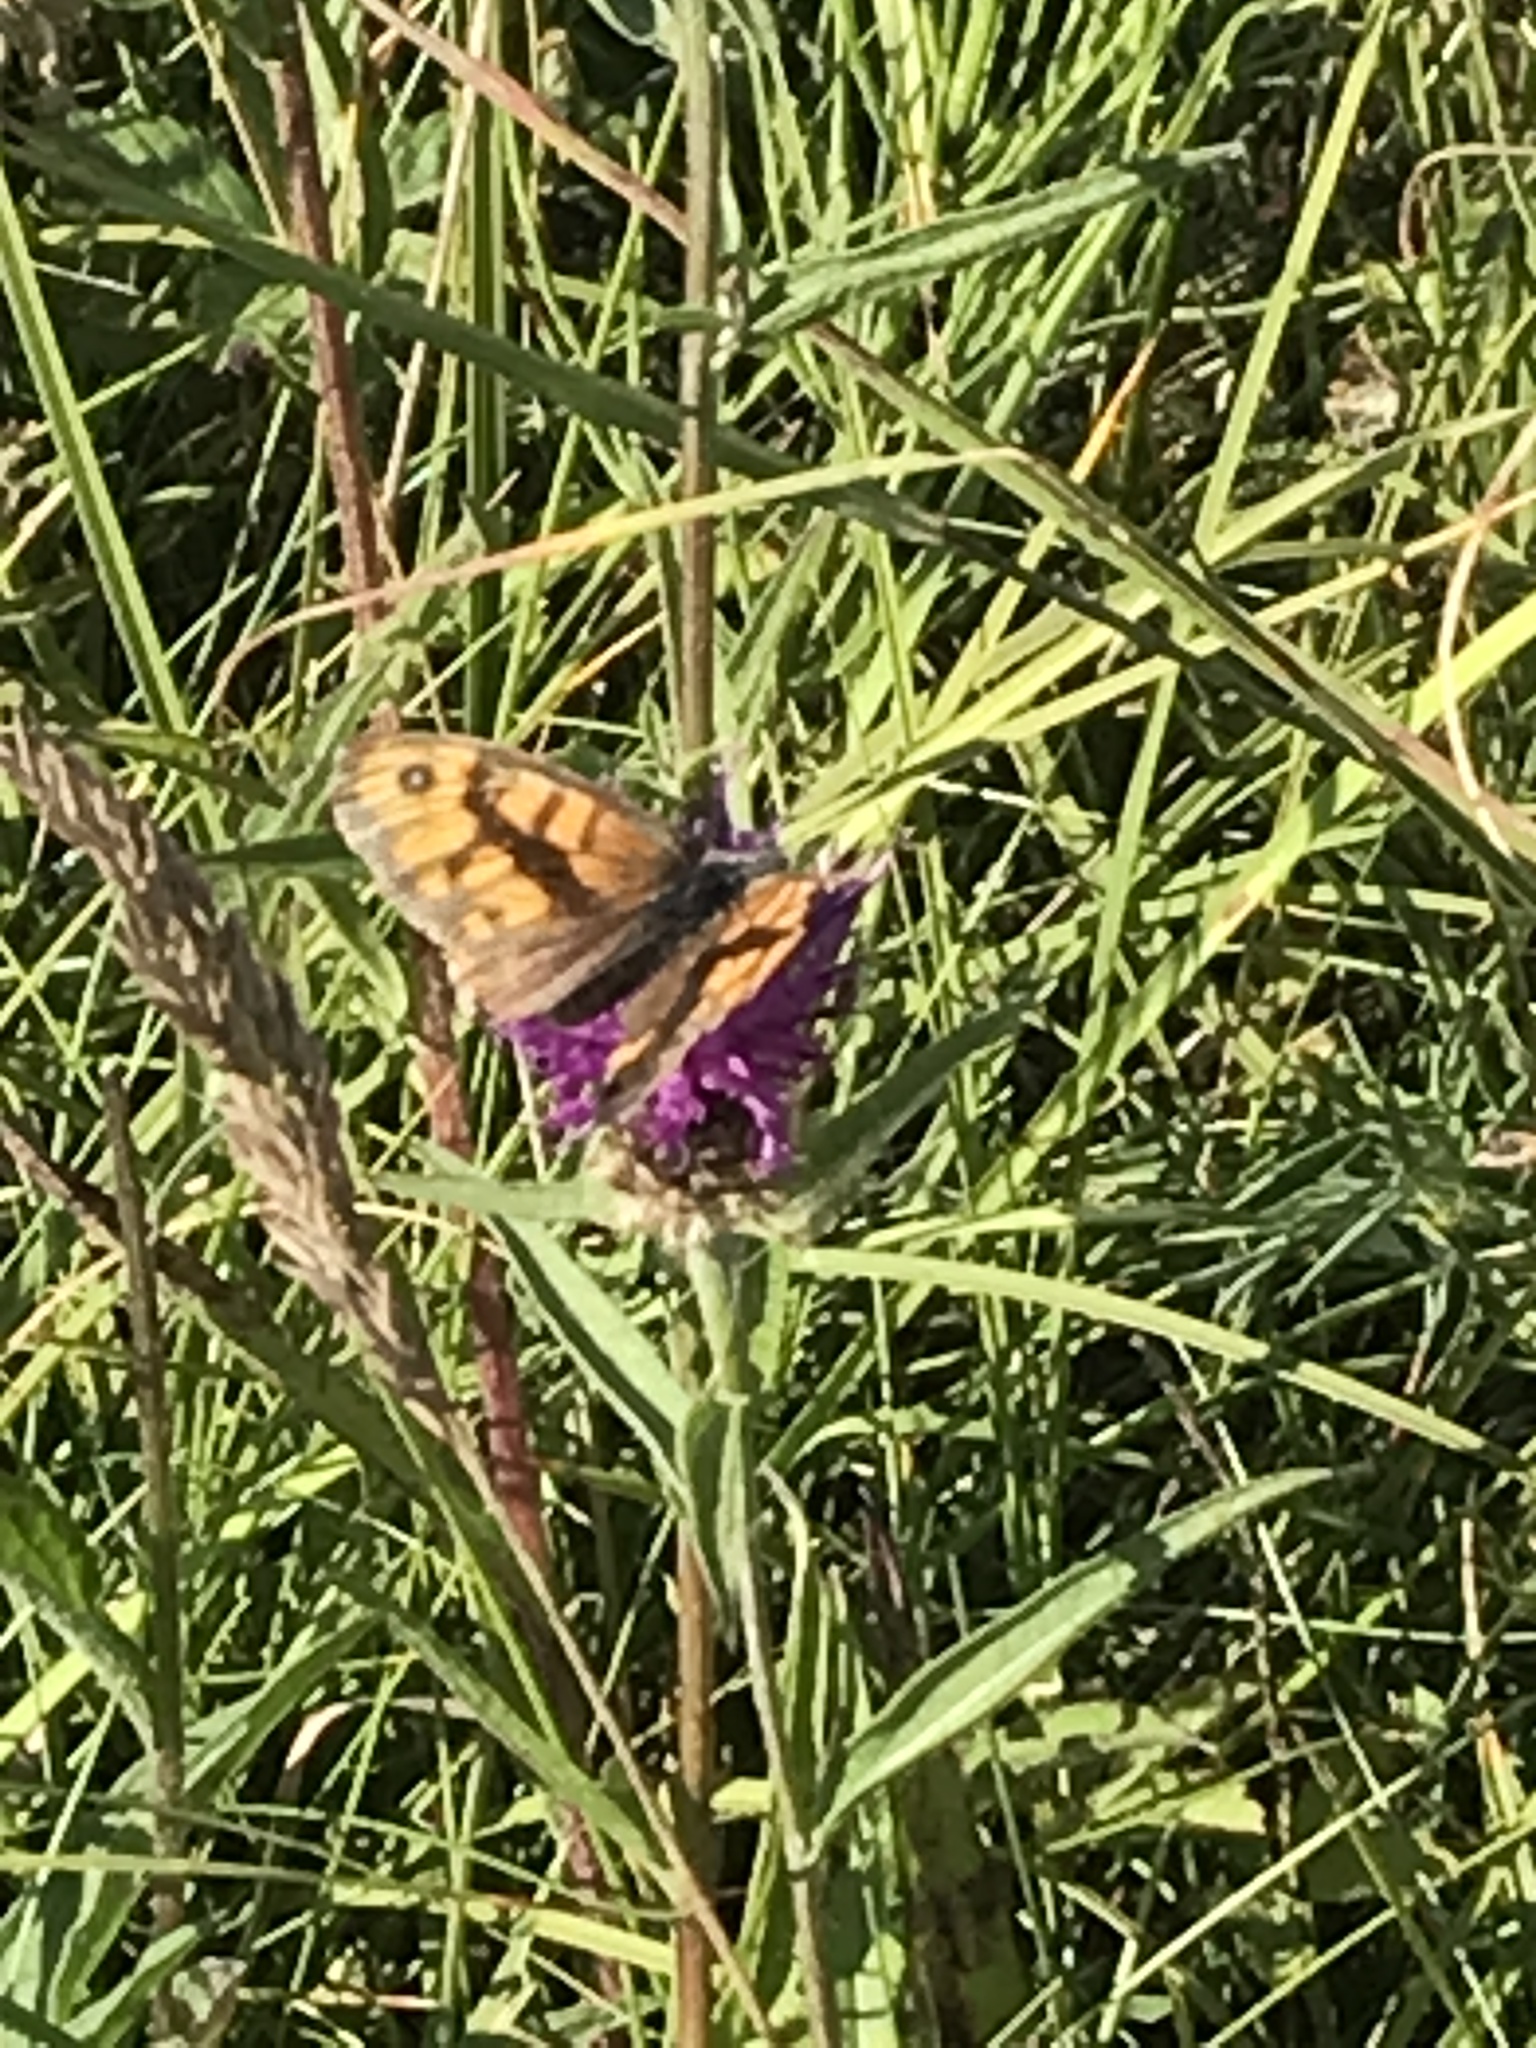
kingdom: Animalia
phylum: Arthropoda
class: Insecta
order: Lepidoptera
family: Nymphalidae
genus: Pararge
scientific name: Pararge Lasiommata megera
